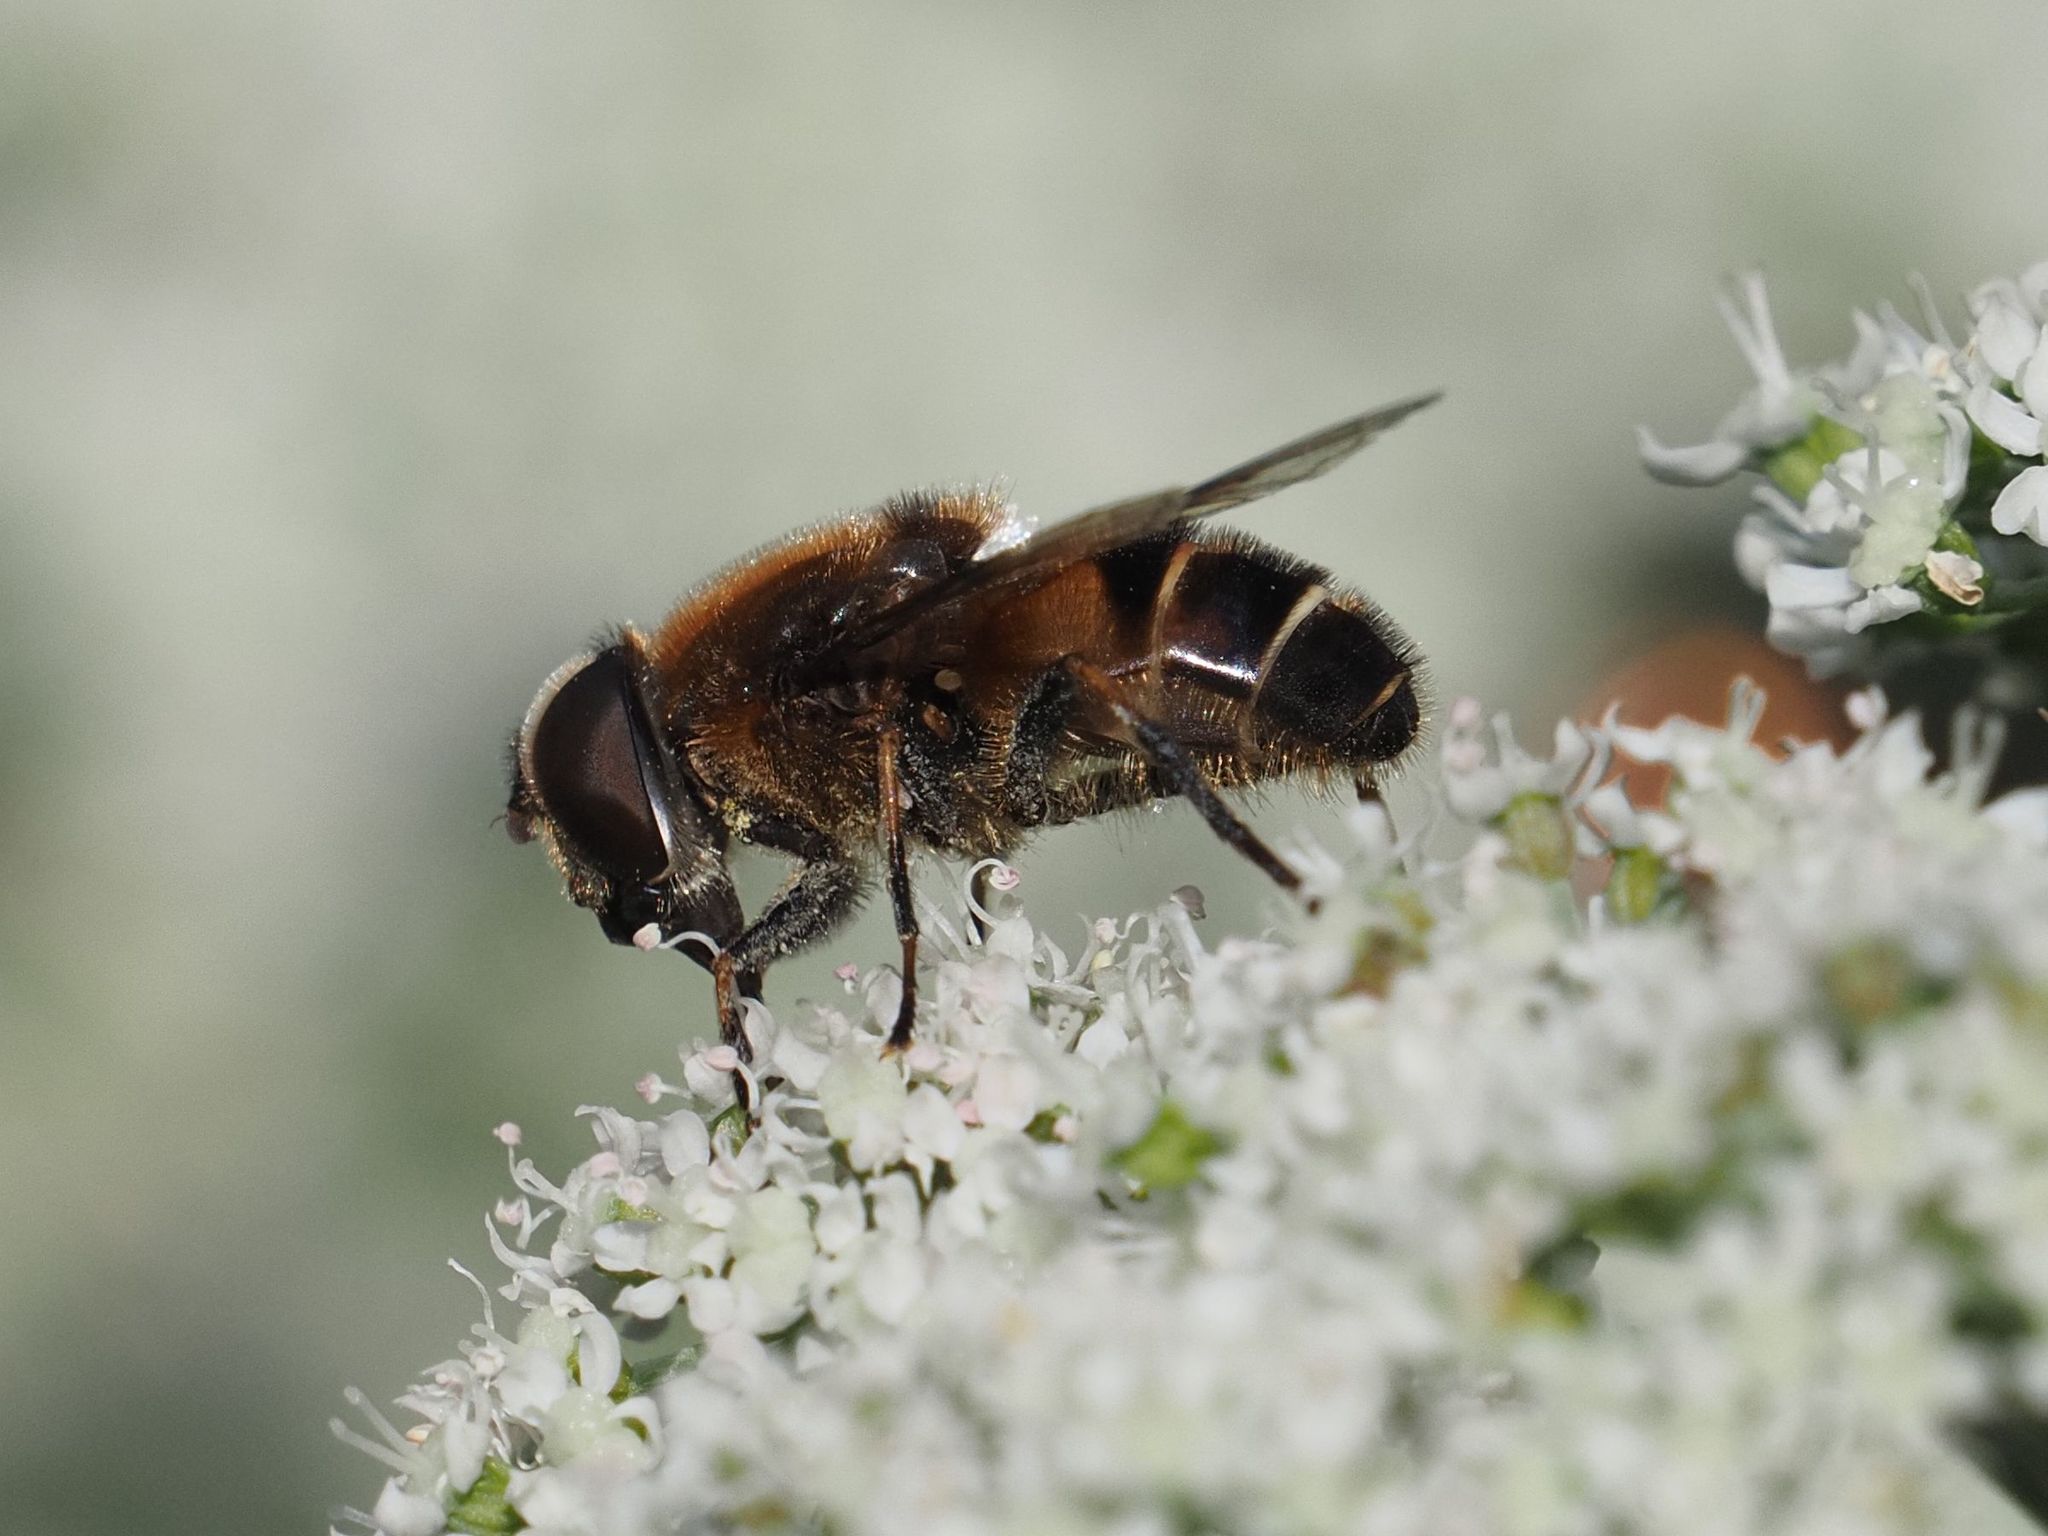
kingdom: Animalia
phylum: Arthropoda
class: Insecta
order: Diptera
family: Syrphidae
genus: Eristalis
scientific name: Eristalis rupium
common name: Hover fly
